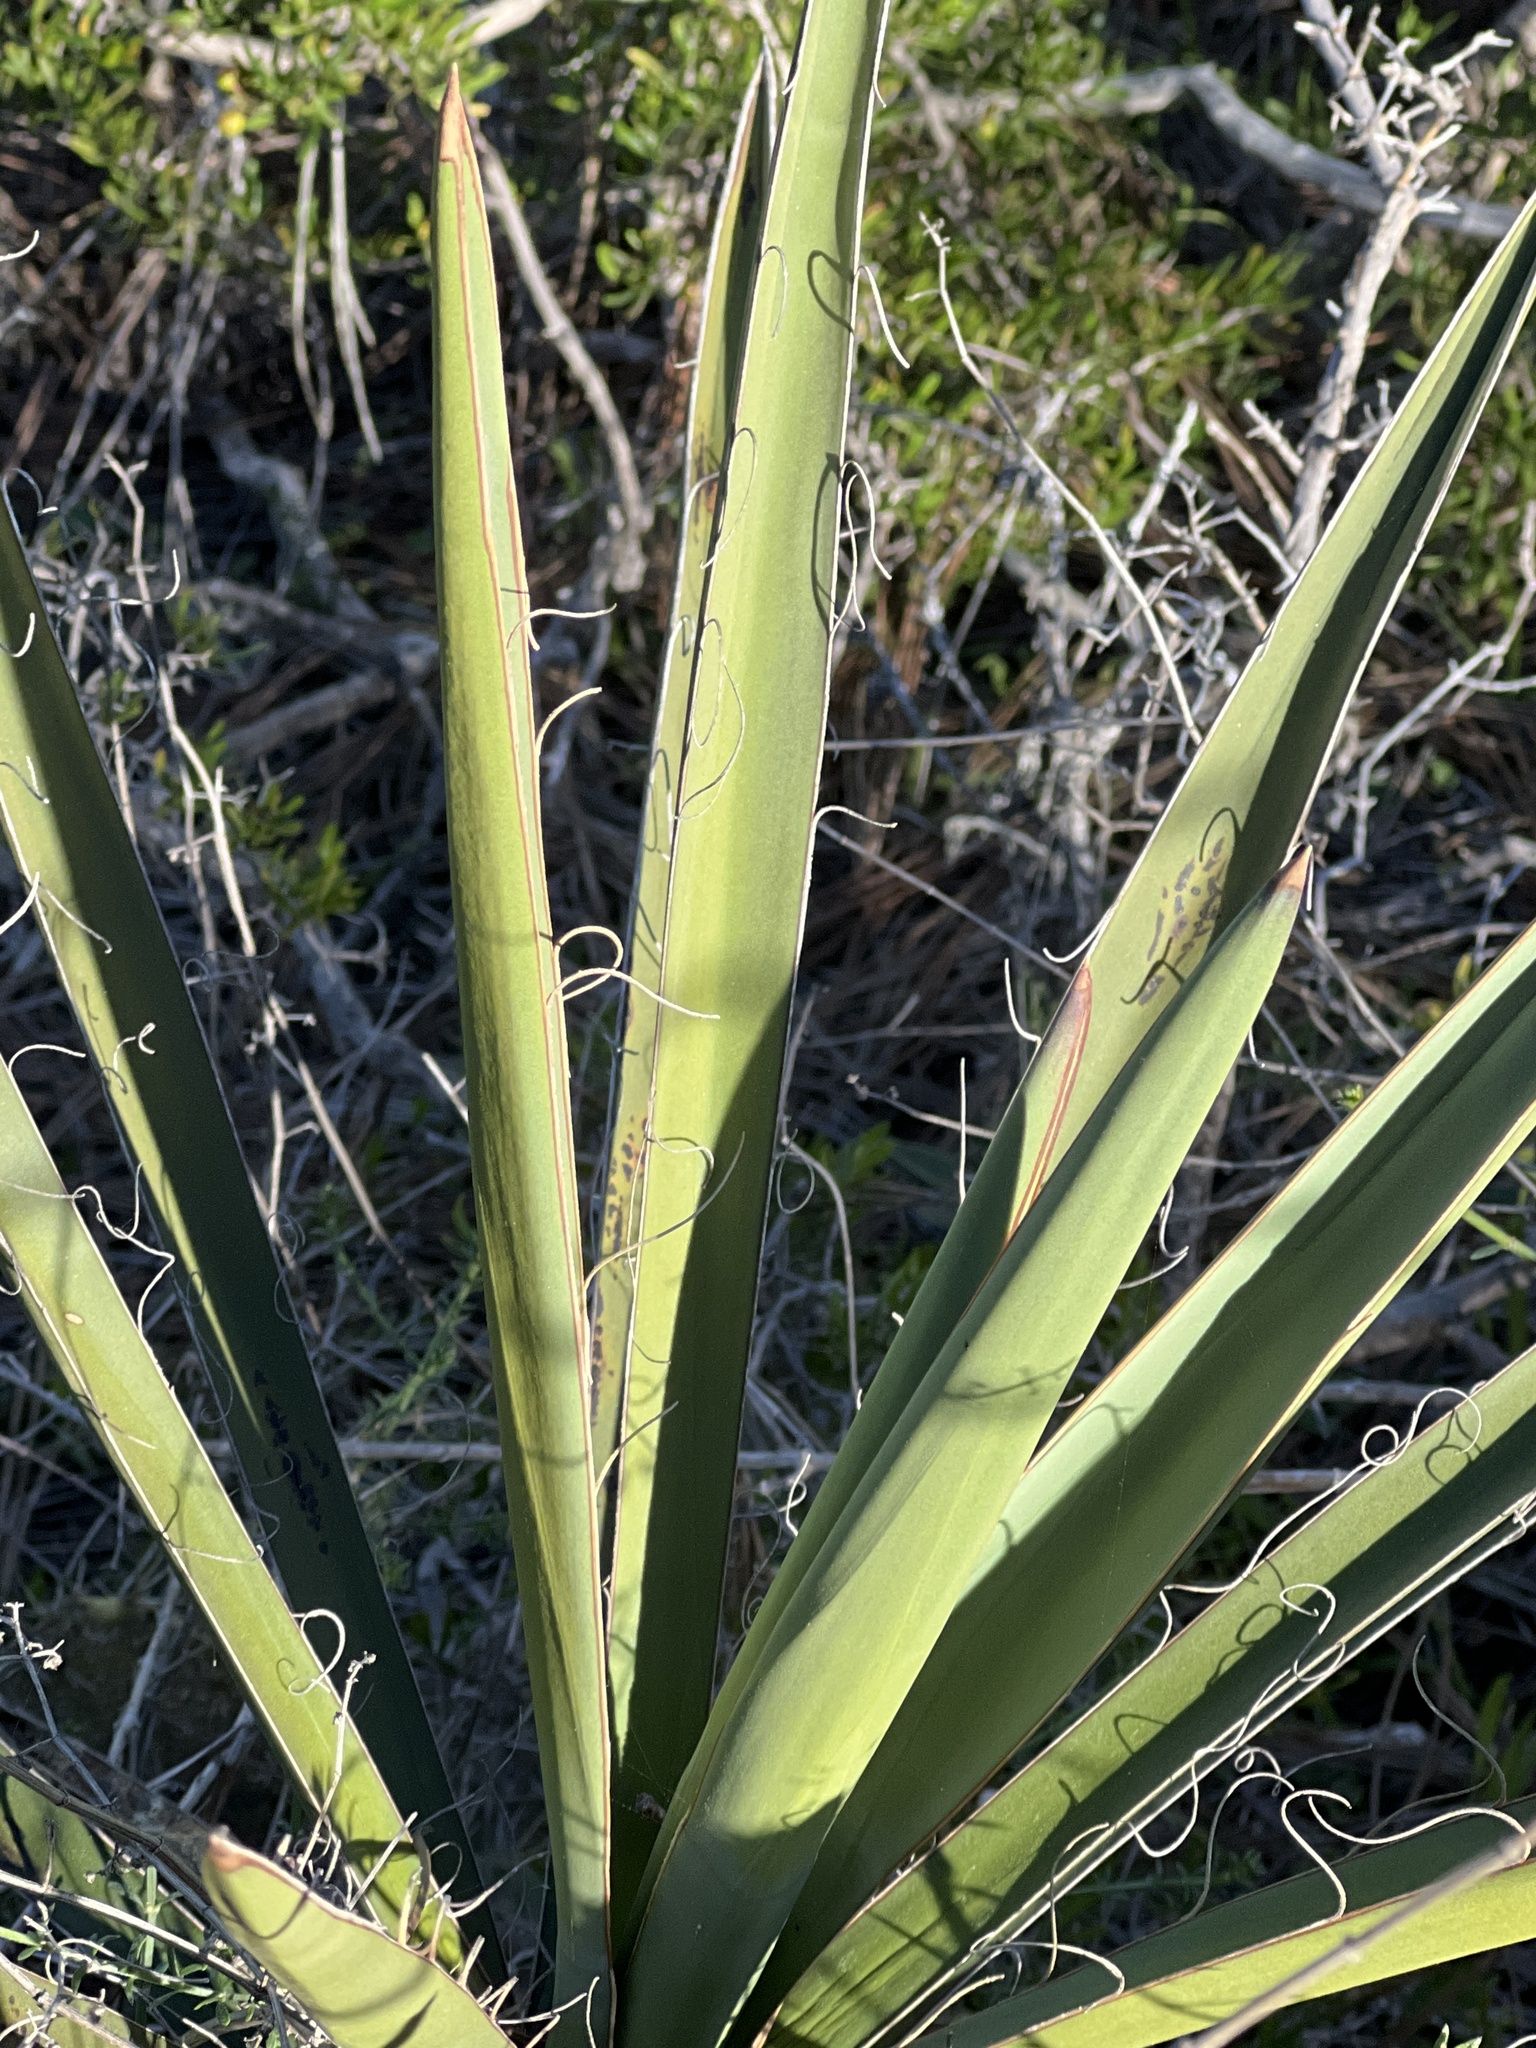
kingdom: Plantae
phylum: Tracheophyta
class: Liliopsida
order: Asparagales
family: Asparagaceae
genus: Yucca
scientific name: Yucca schidigera
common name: Mojave yucca
